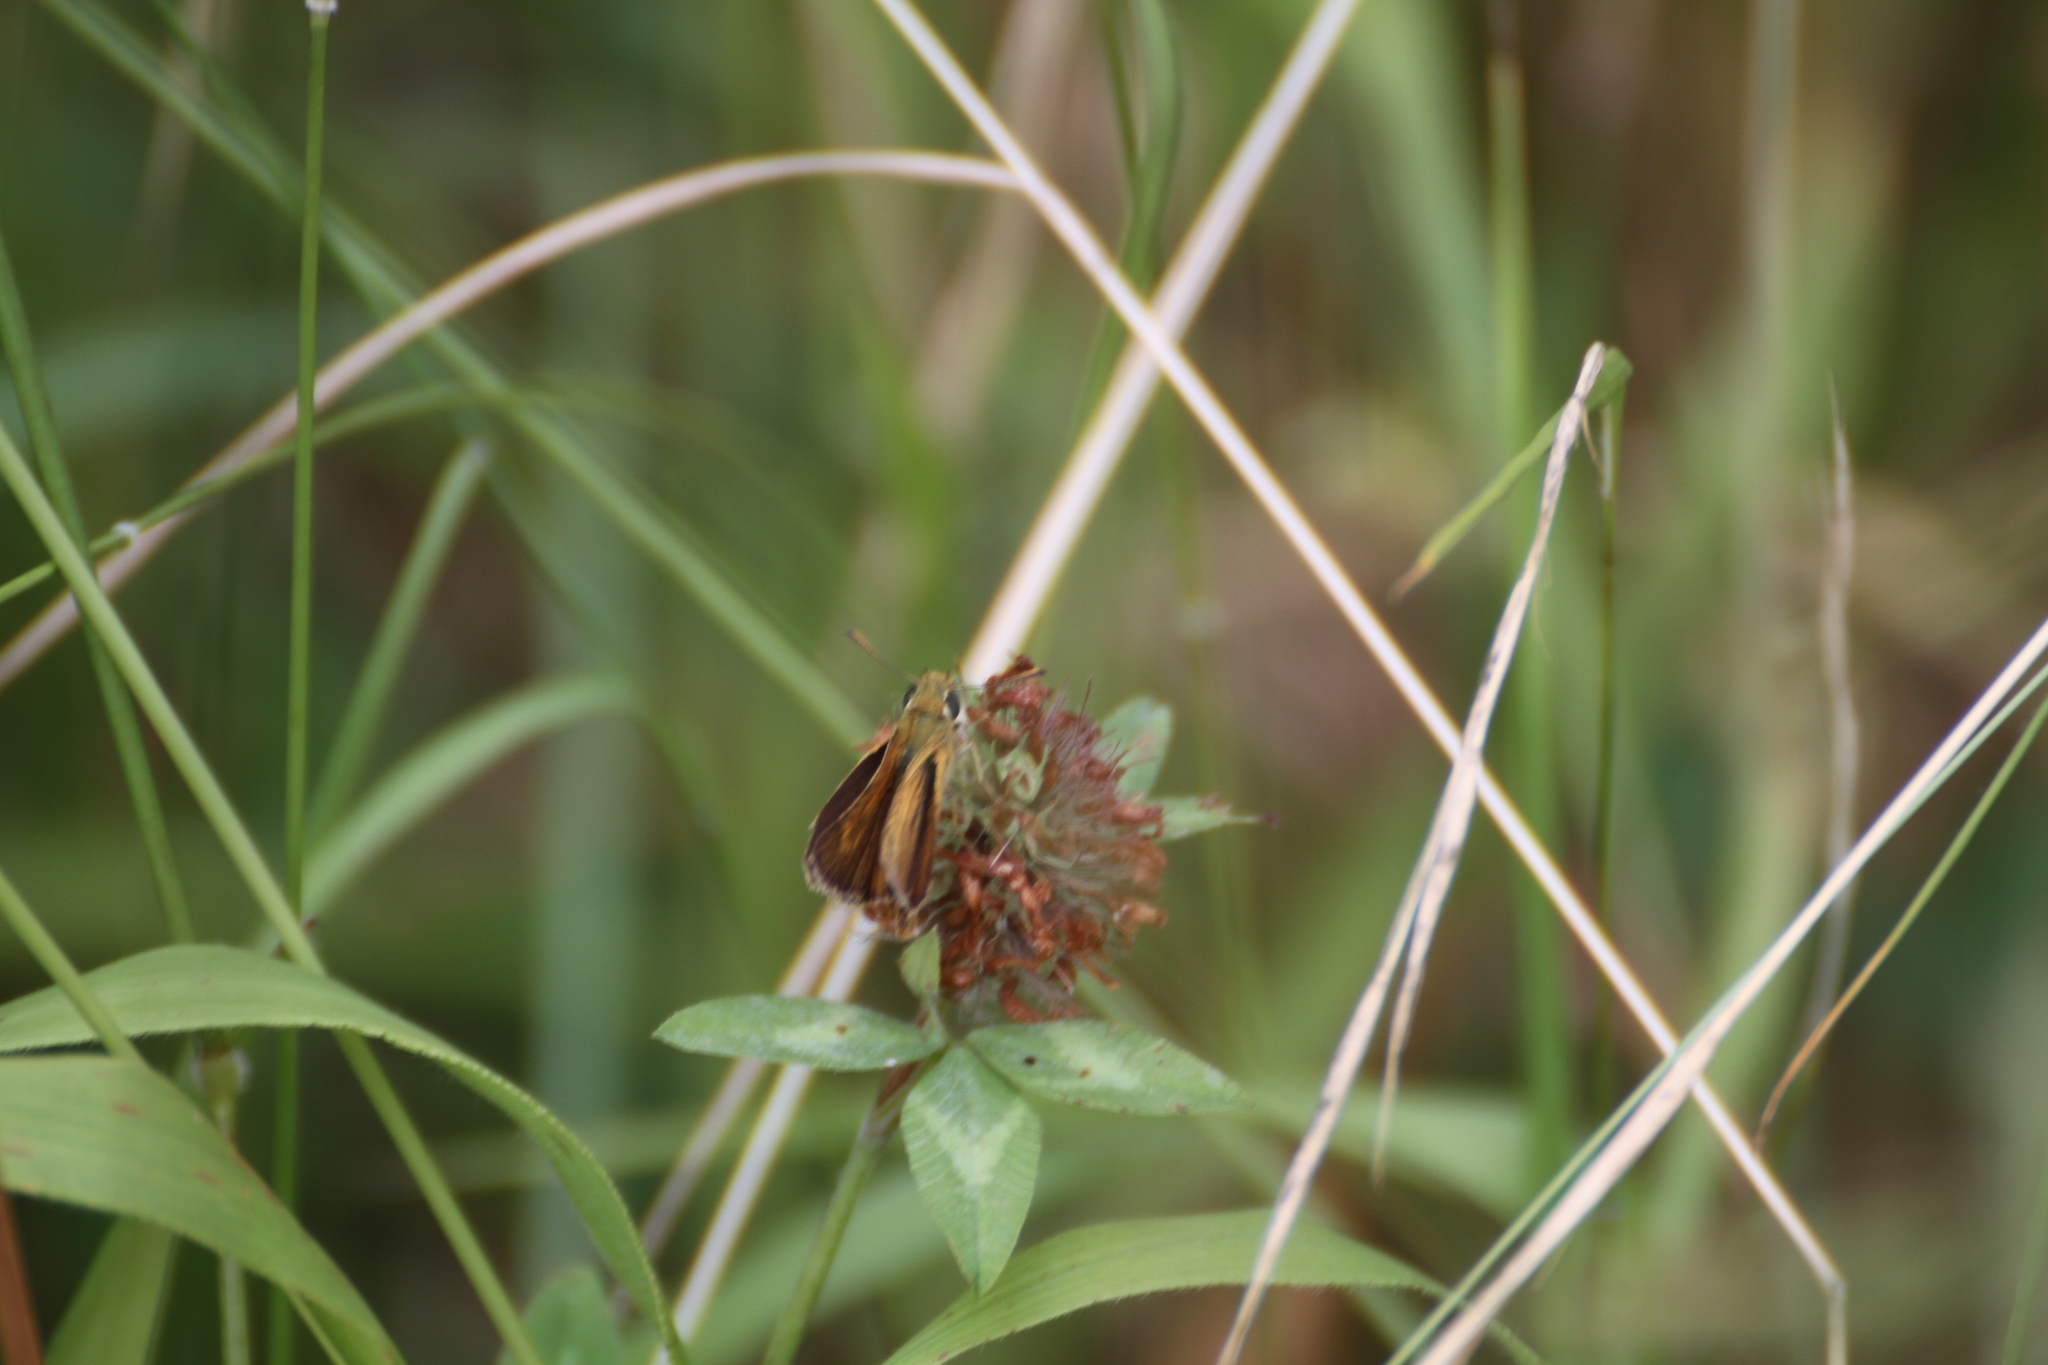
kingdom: Animalia
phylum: Arthropoda
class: Insecta
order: Lepidoptera
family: Hesperiidae
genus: Thymelicus
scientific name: Thymelicus acteon
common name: Lulworth skipper
